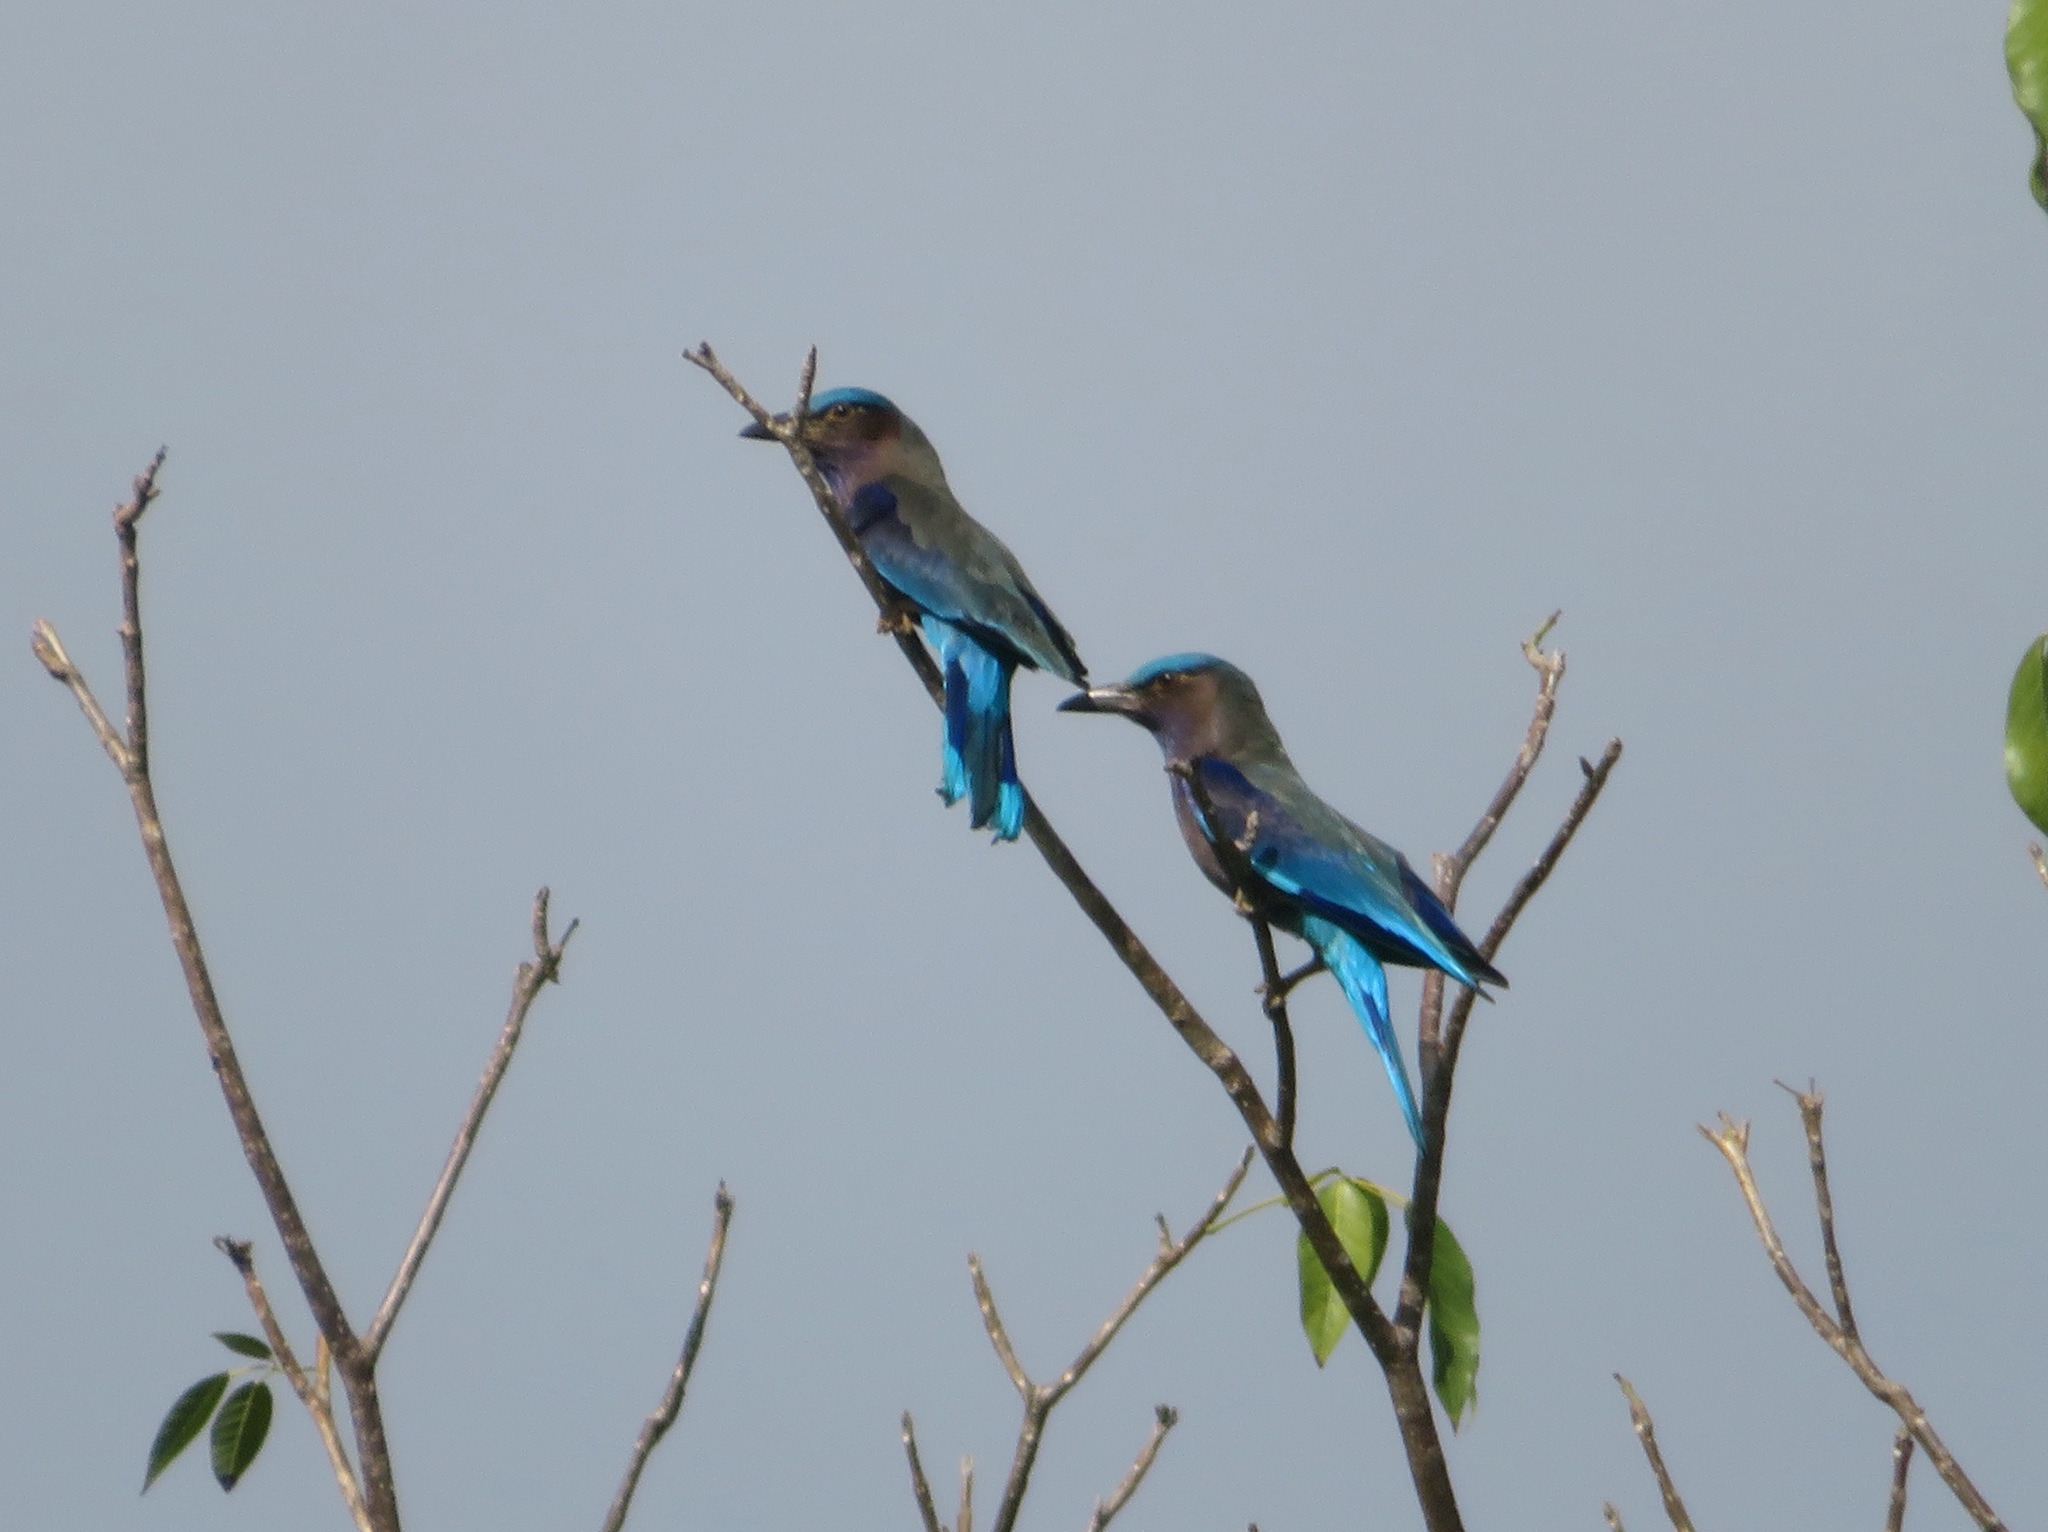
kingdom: Animalia
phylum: Chordata
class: Aves
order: Coraciiformes
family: Coraciidae
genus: Coracias
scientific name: Coracias affinis
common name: Indochinese roller
